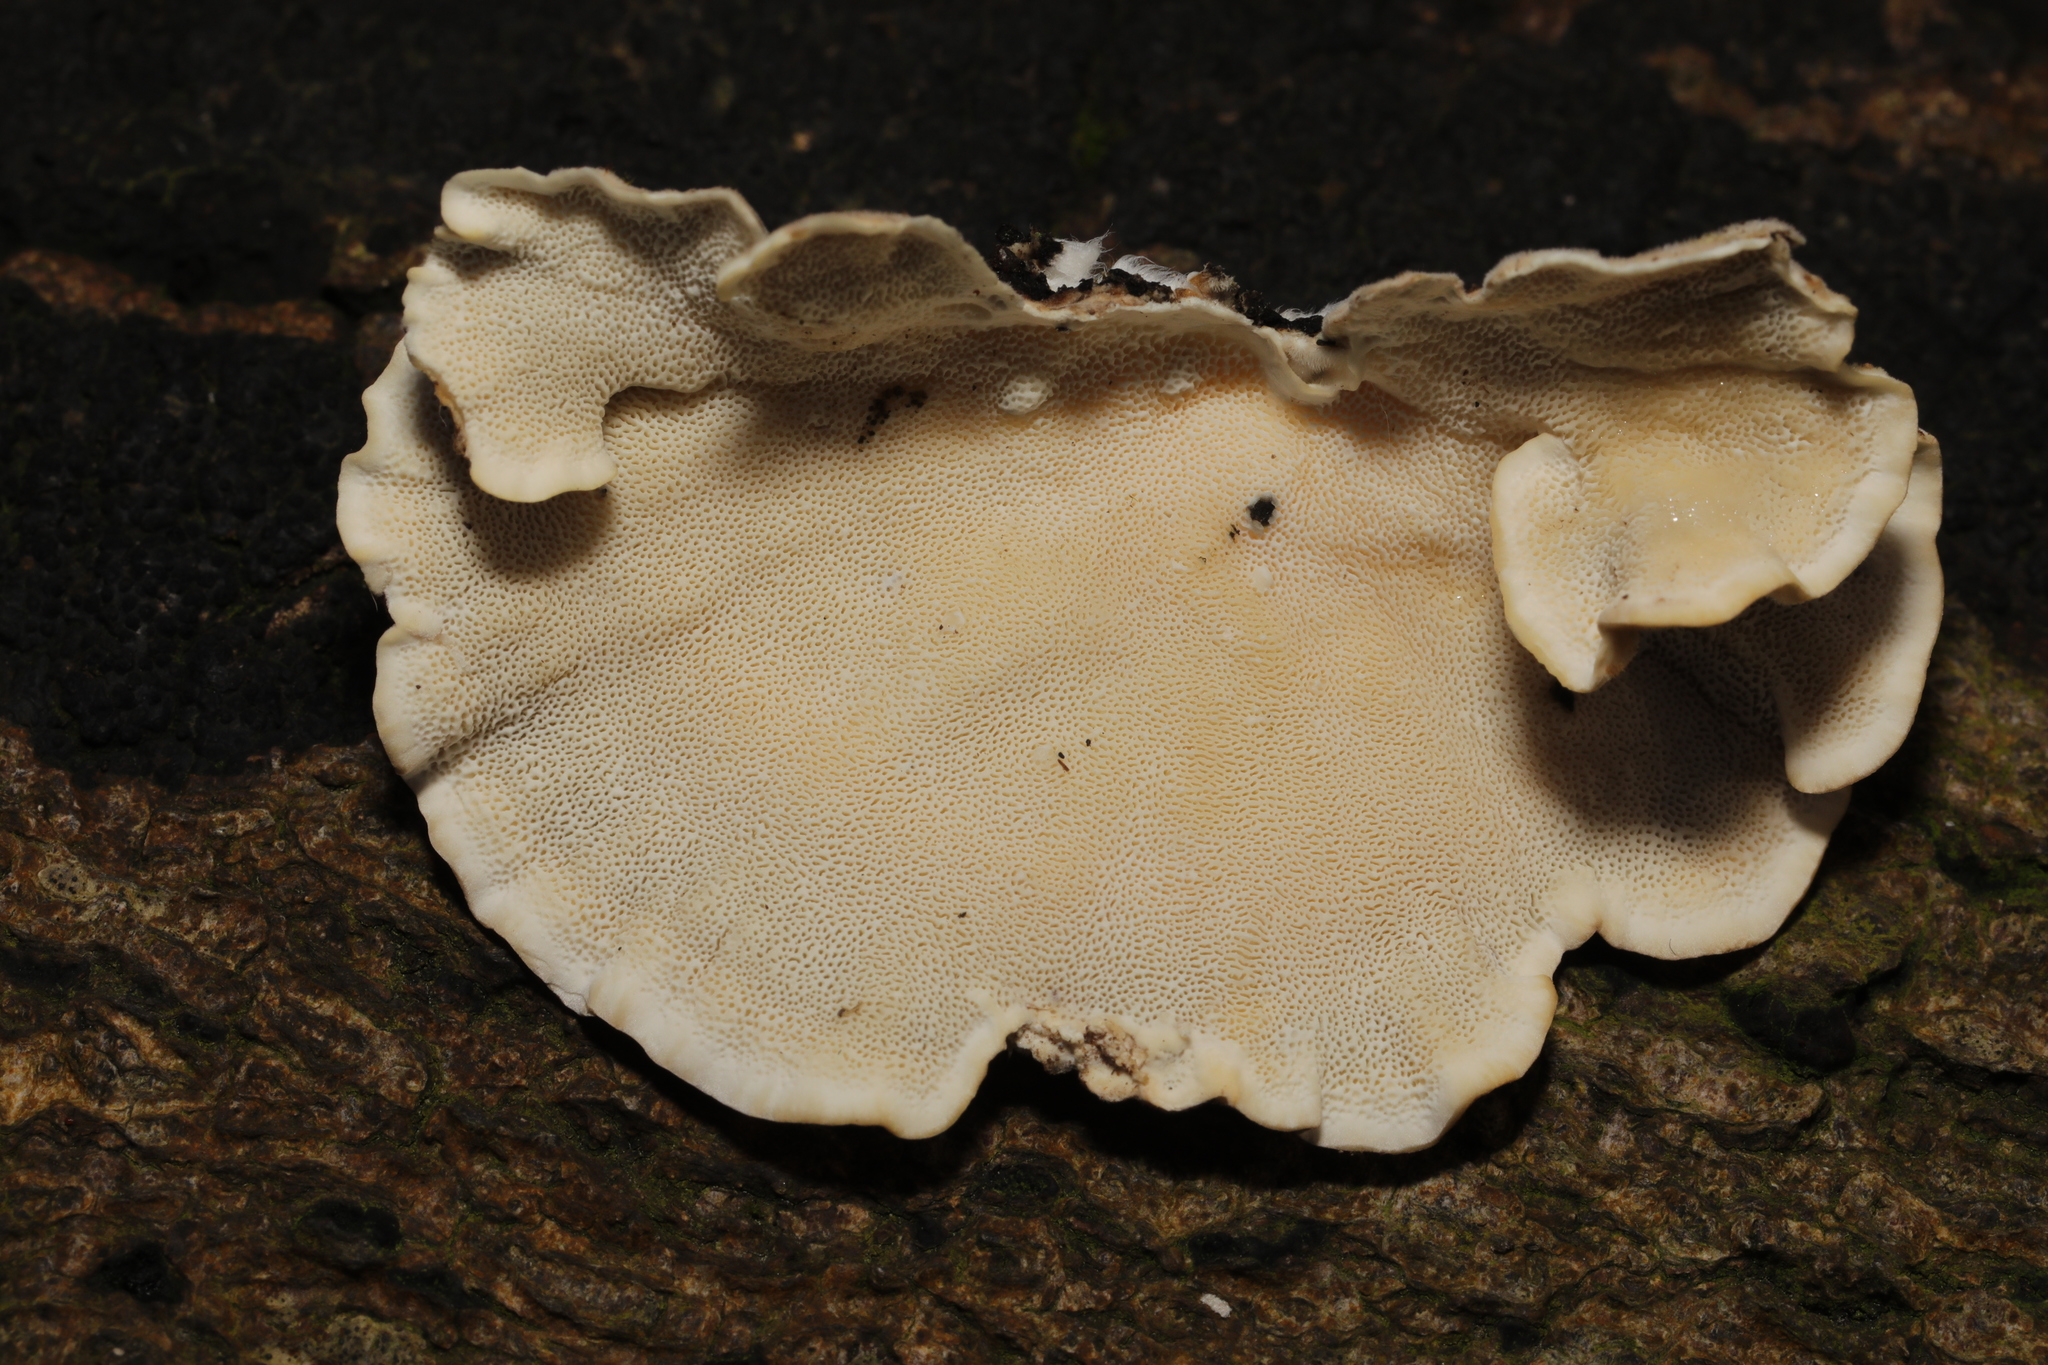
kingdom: Fungi
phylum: Basidiomycota
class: Agaricomycetes
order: Polyporales
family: Polyporaceae
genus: Trametes
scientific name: Trametes versicolor
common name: Turkeytail
